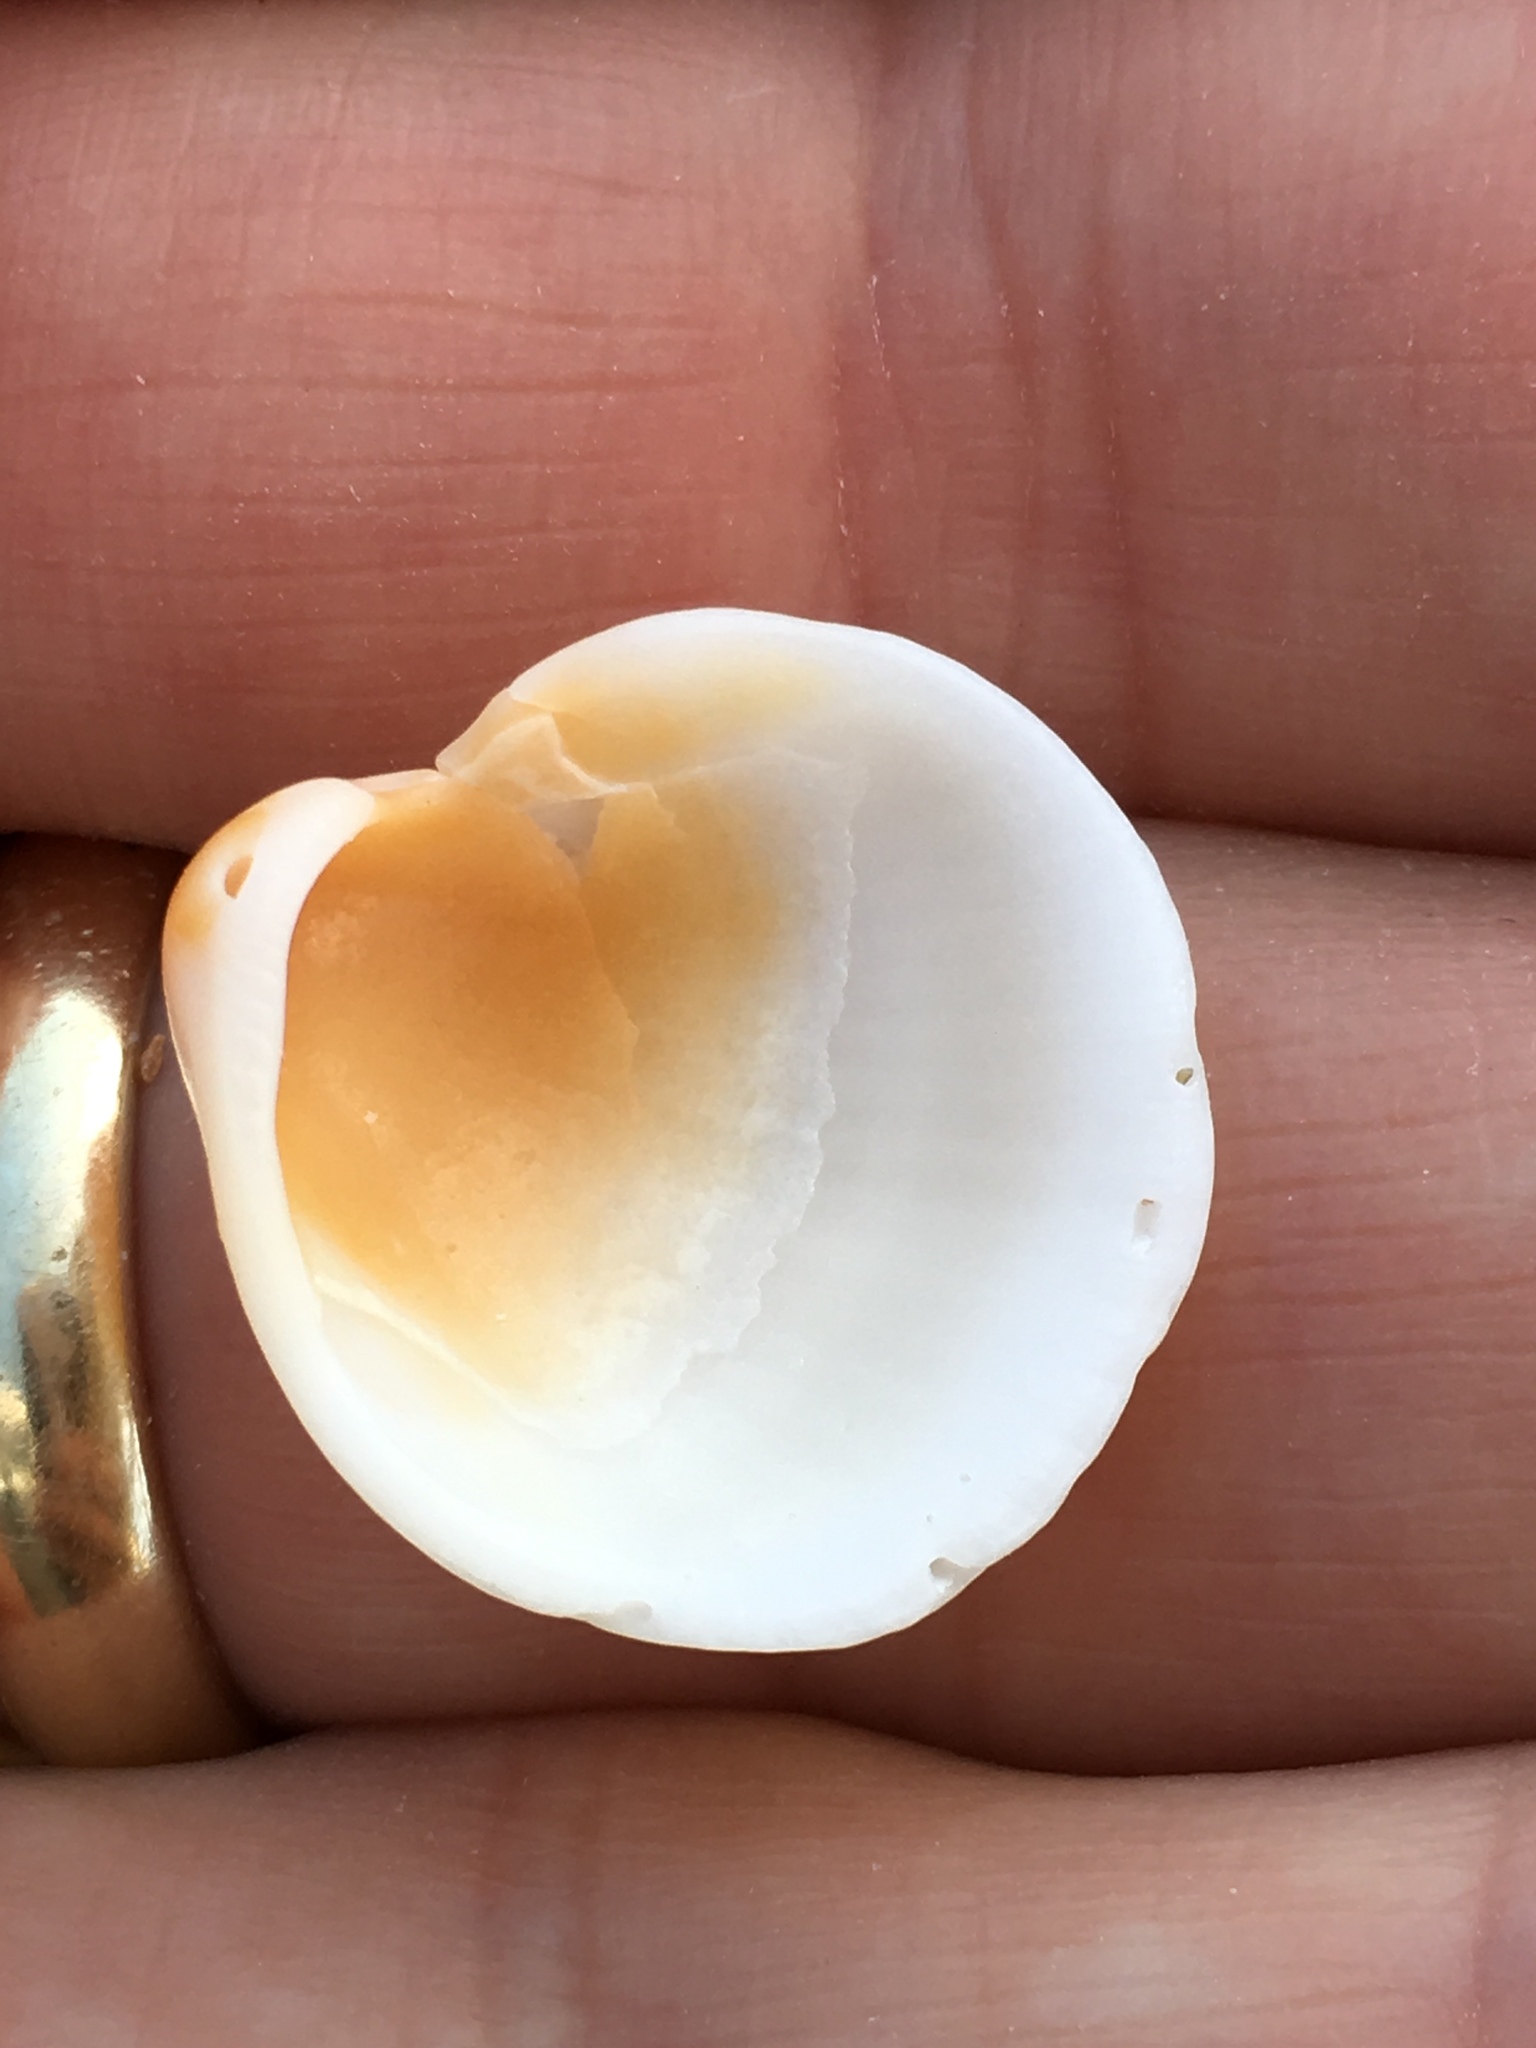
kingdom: Animalia
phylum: Mollusca
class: Bivalvia
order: Arcida
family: Glycymerididae
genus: Glycymeris
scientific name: Glycymeris spectralis
